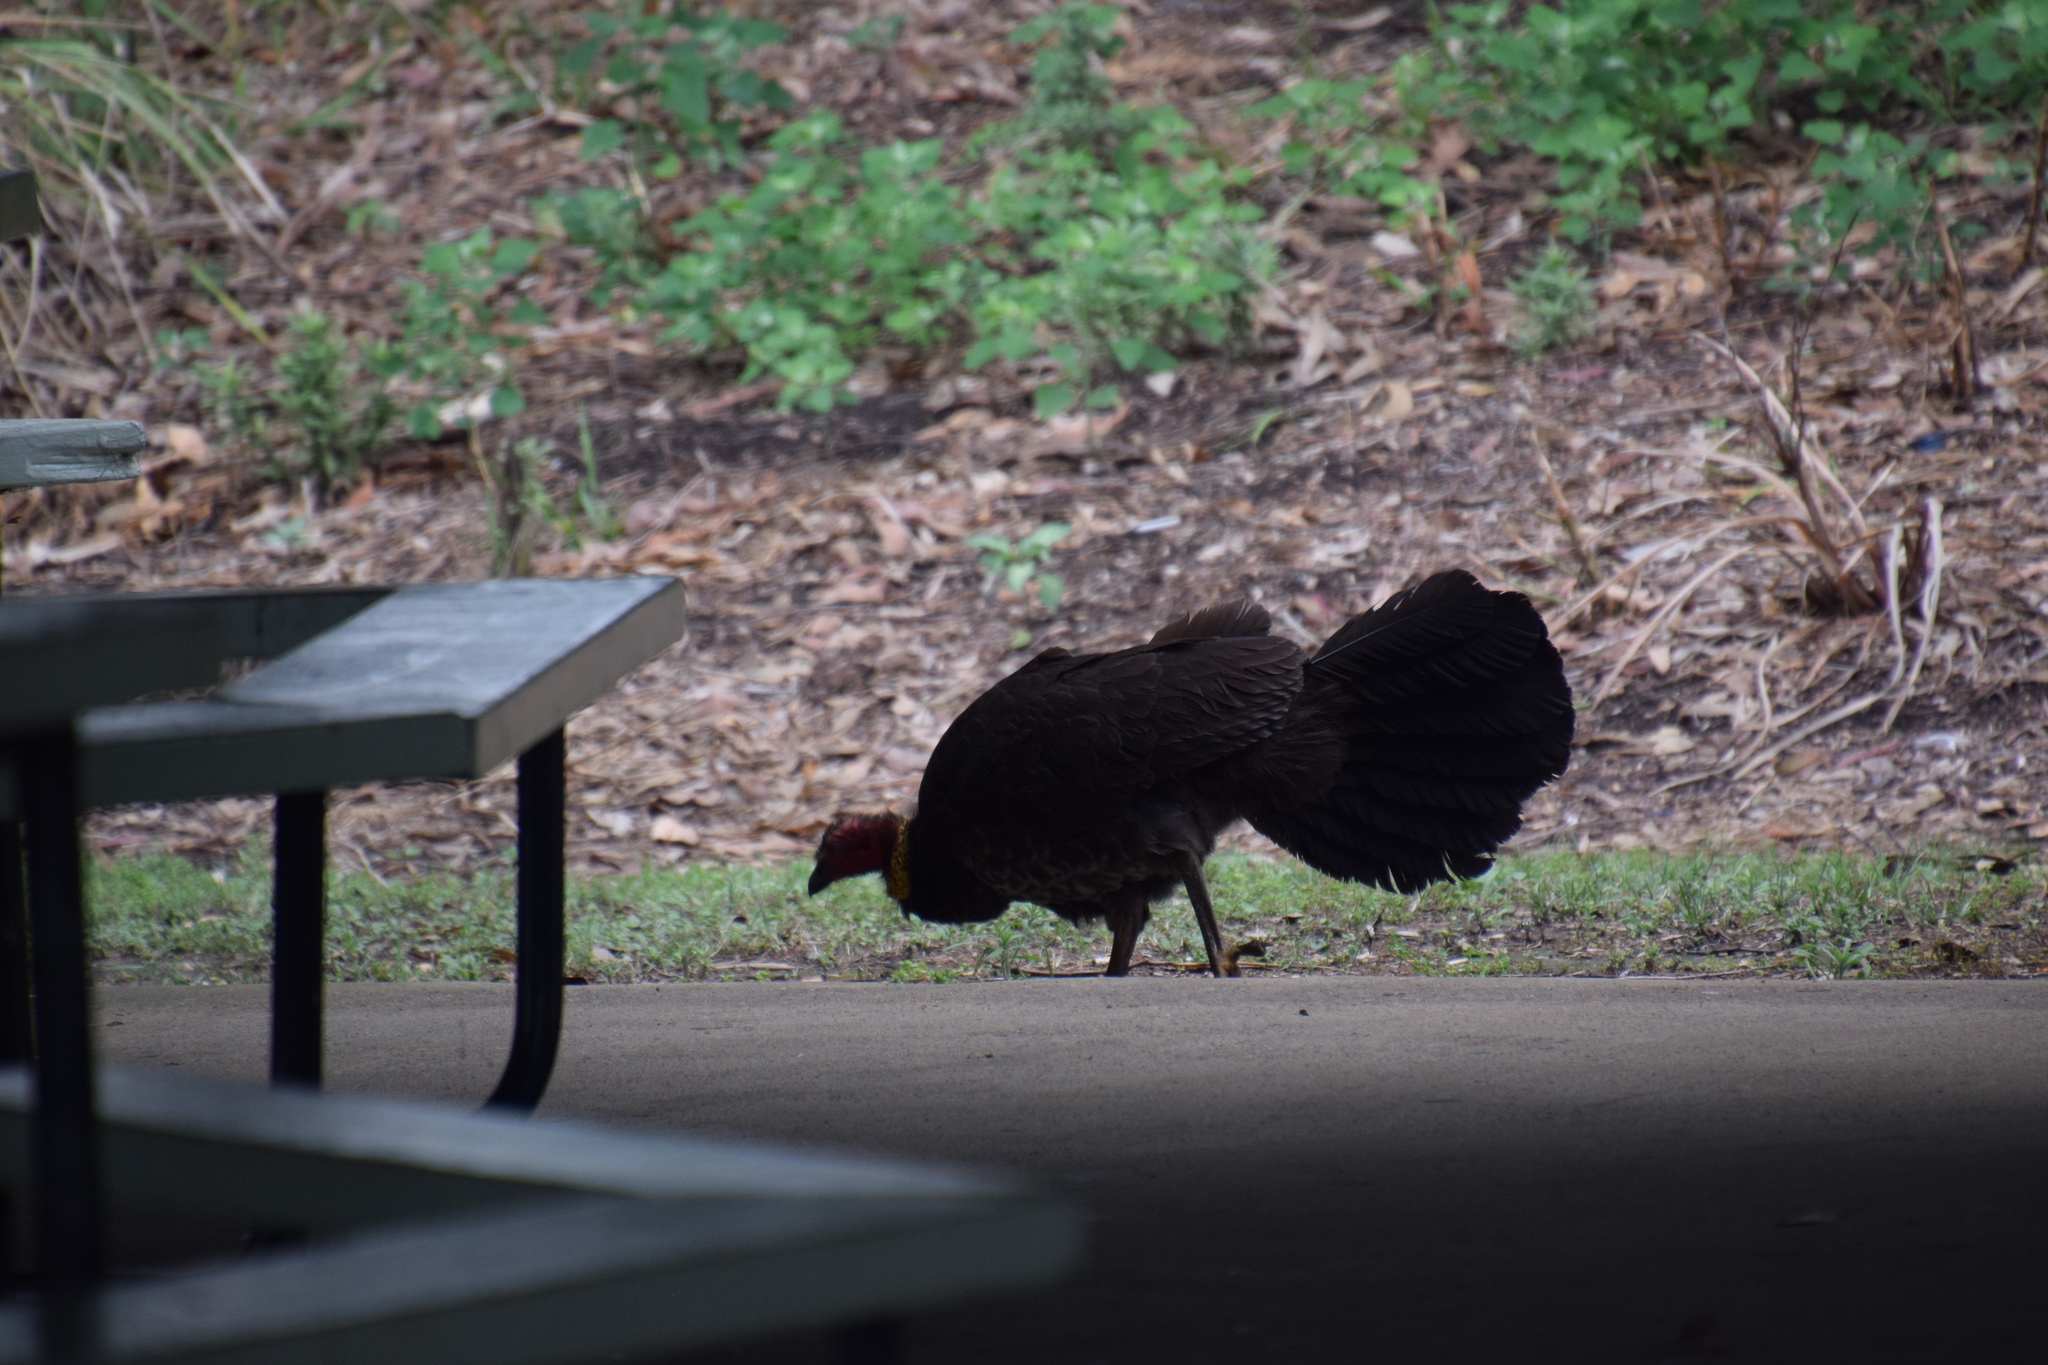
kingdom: Animalia
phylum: Chordata
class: Aves
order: Galliformes
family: Megapodiidae
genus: Alectura
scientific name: Alectura lathami
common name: Australian brushturkey
